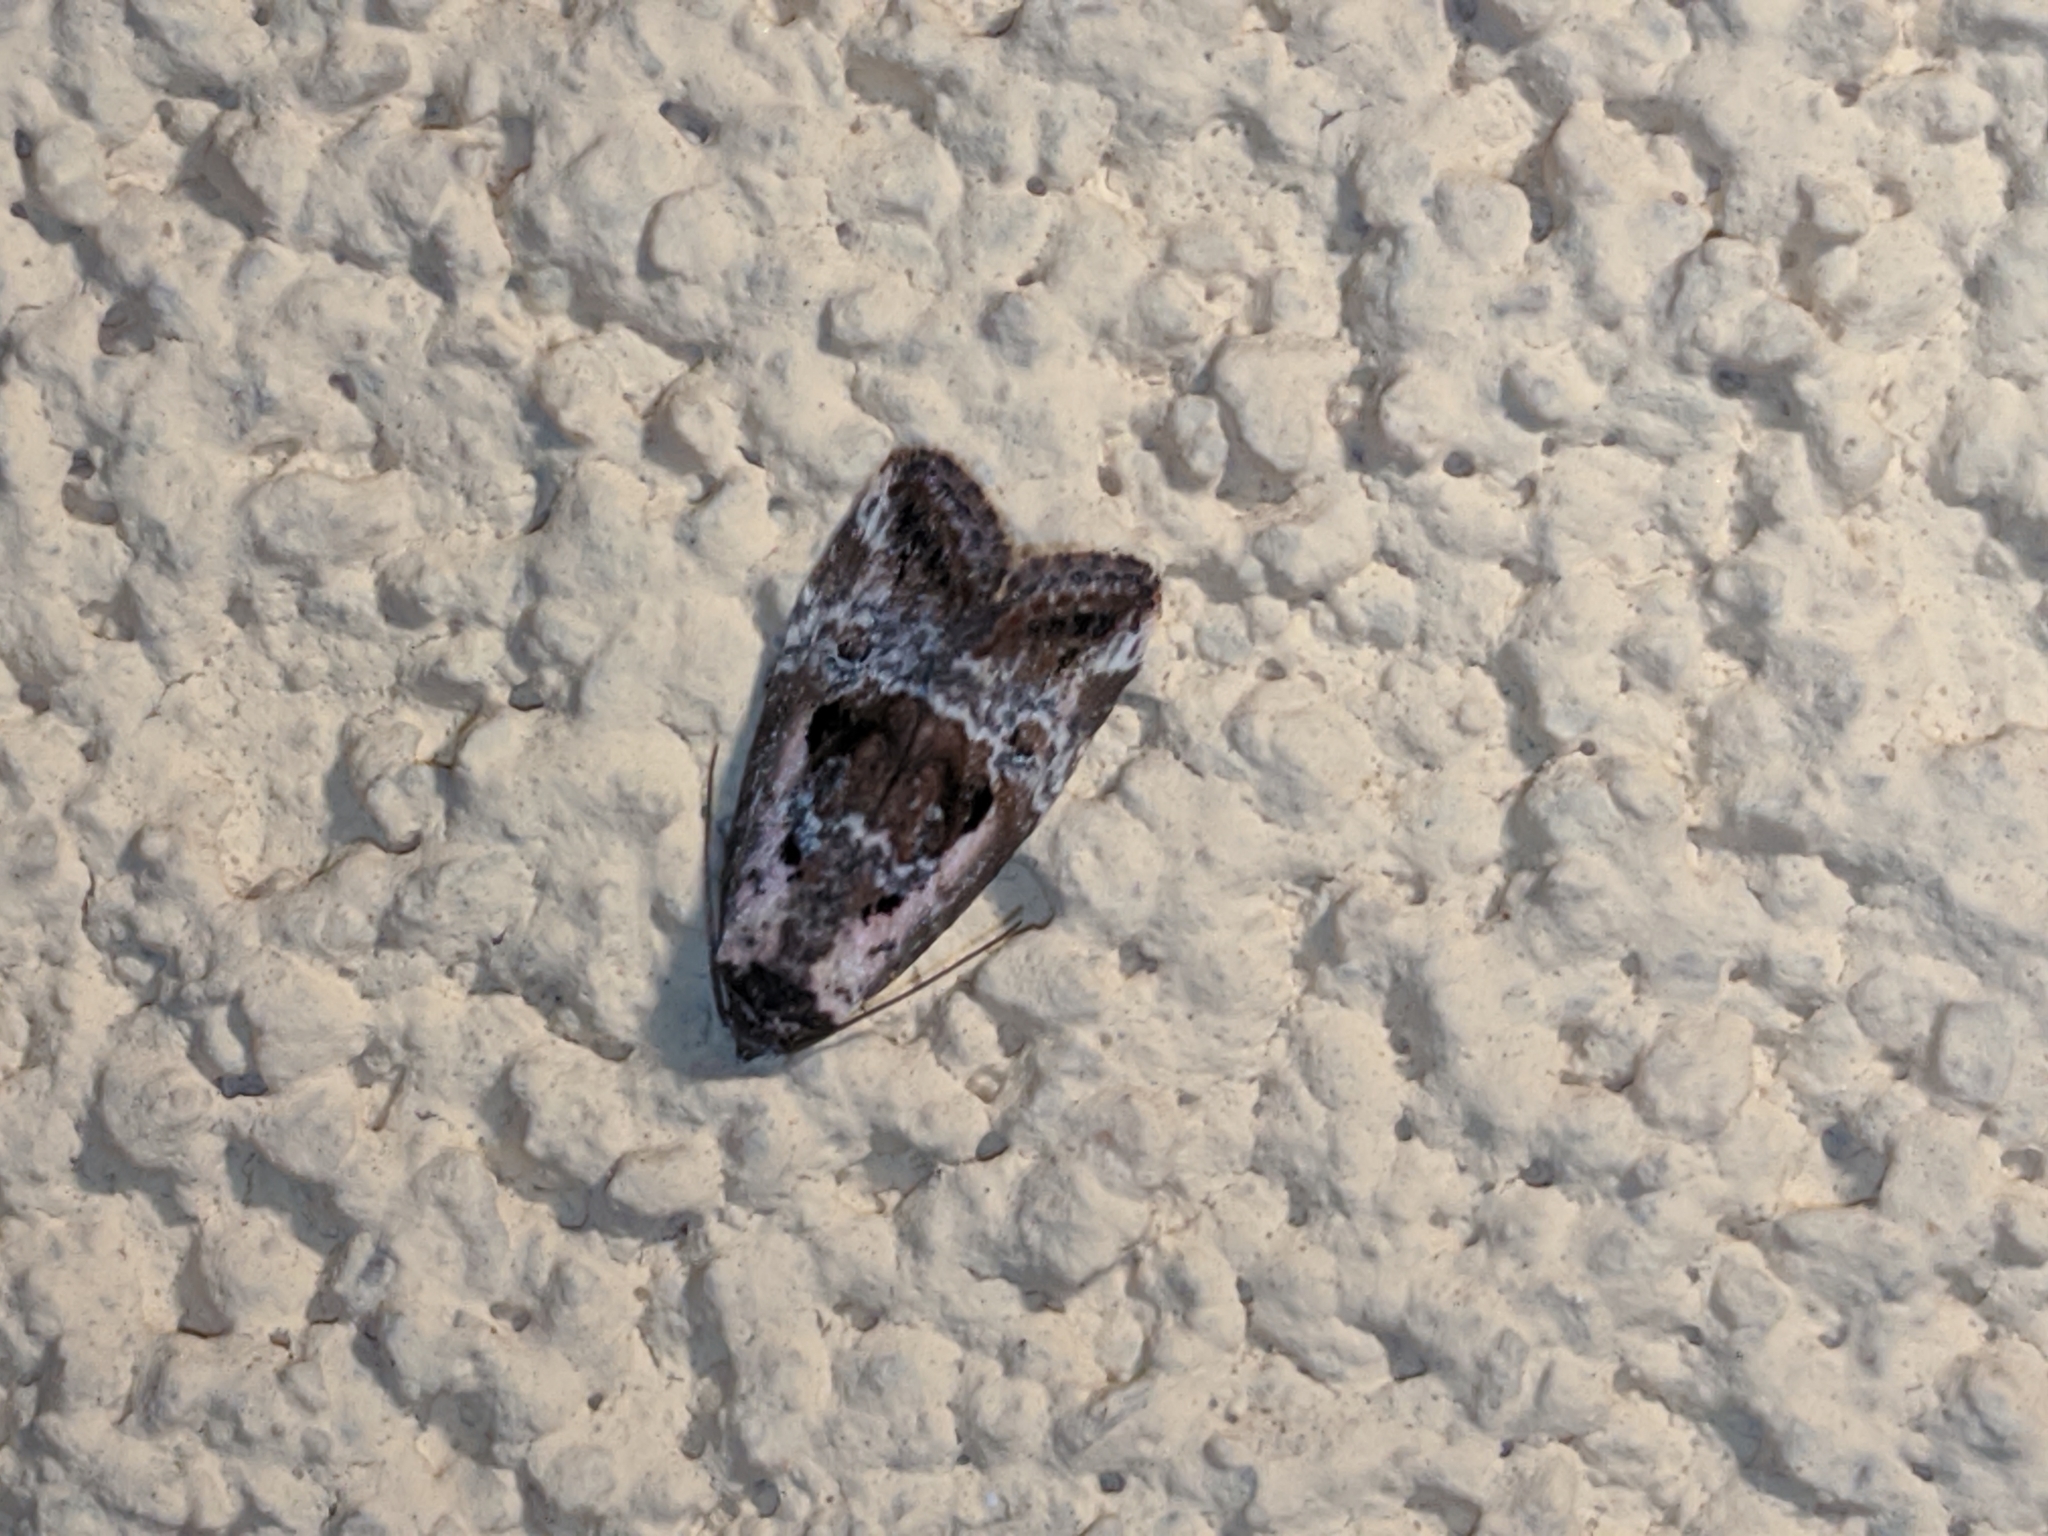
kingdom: Animalia
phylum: Arthropoda
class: Insecta
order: Lepidoptera
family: Noctuidae
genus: Elaphria
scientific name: Elaphria venustula
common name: Rosy marbled
